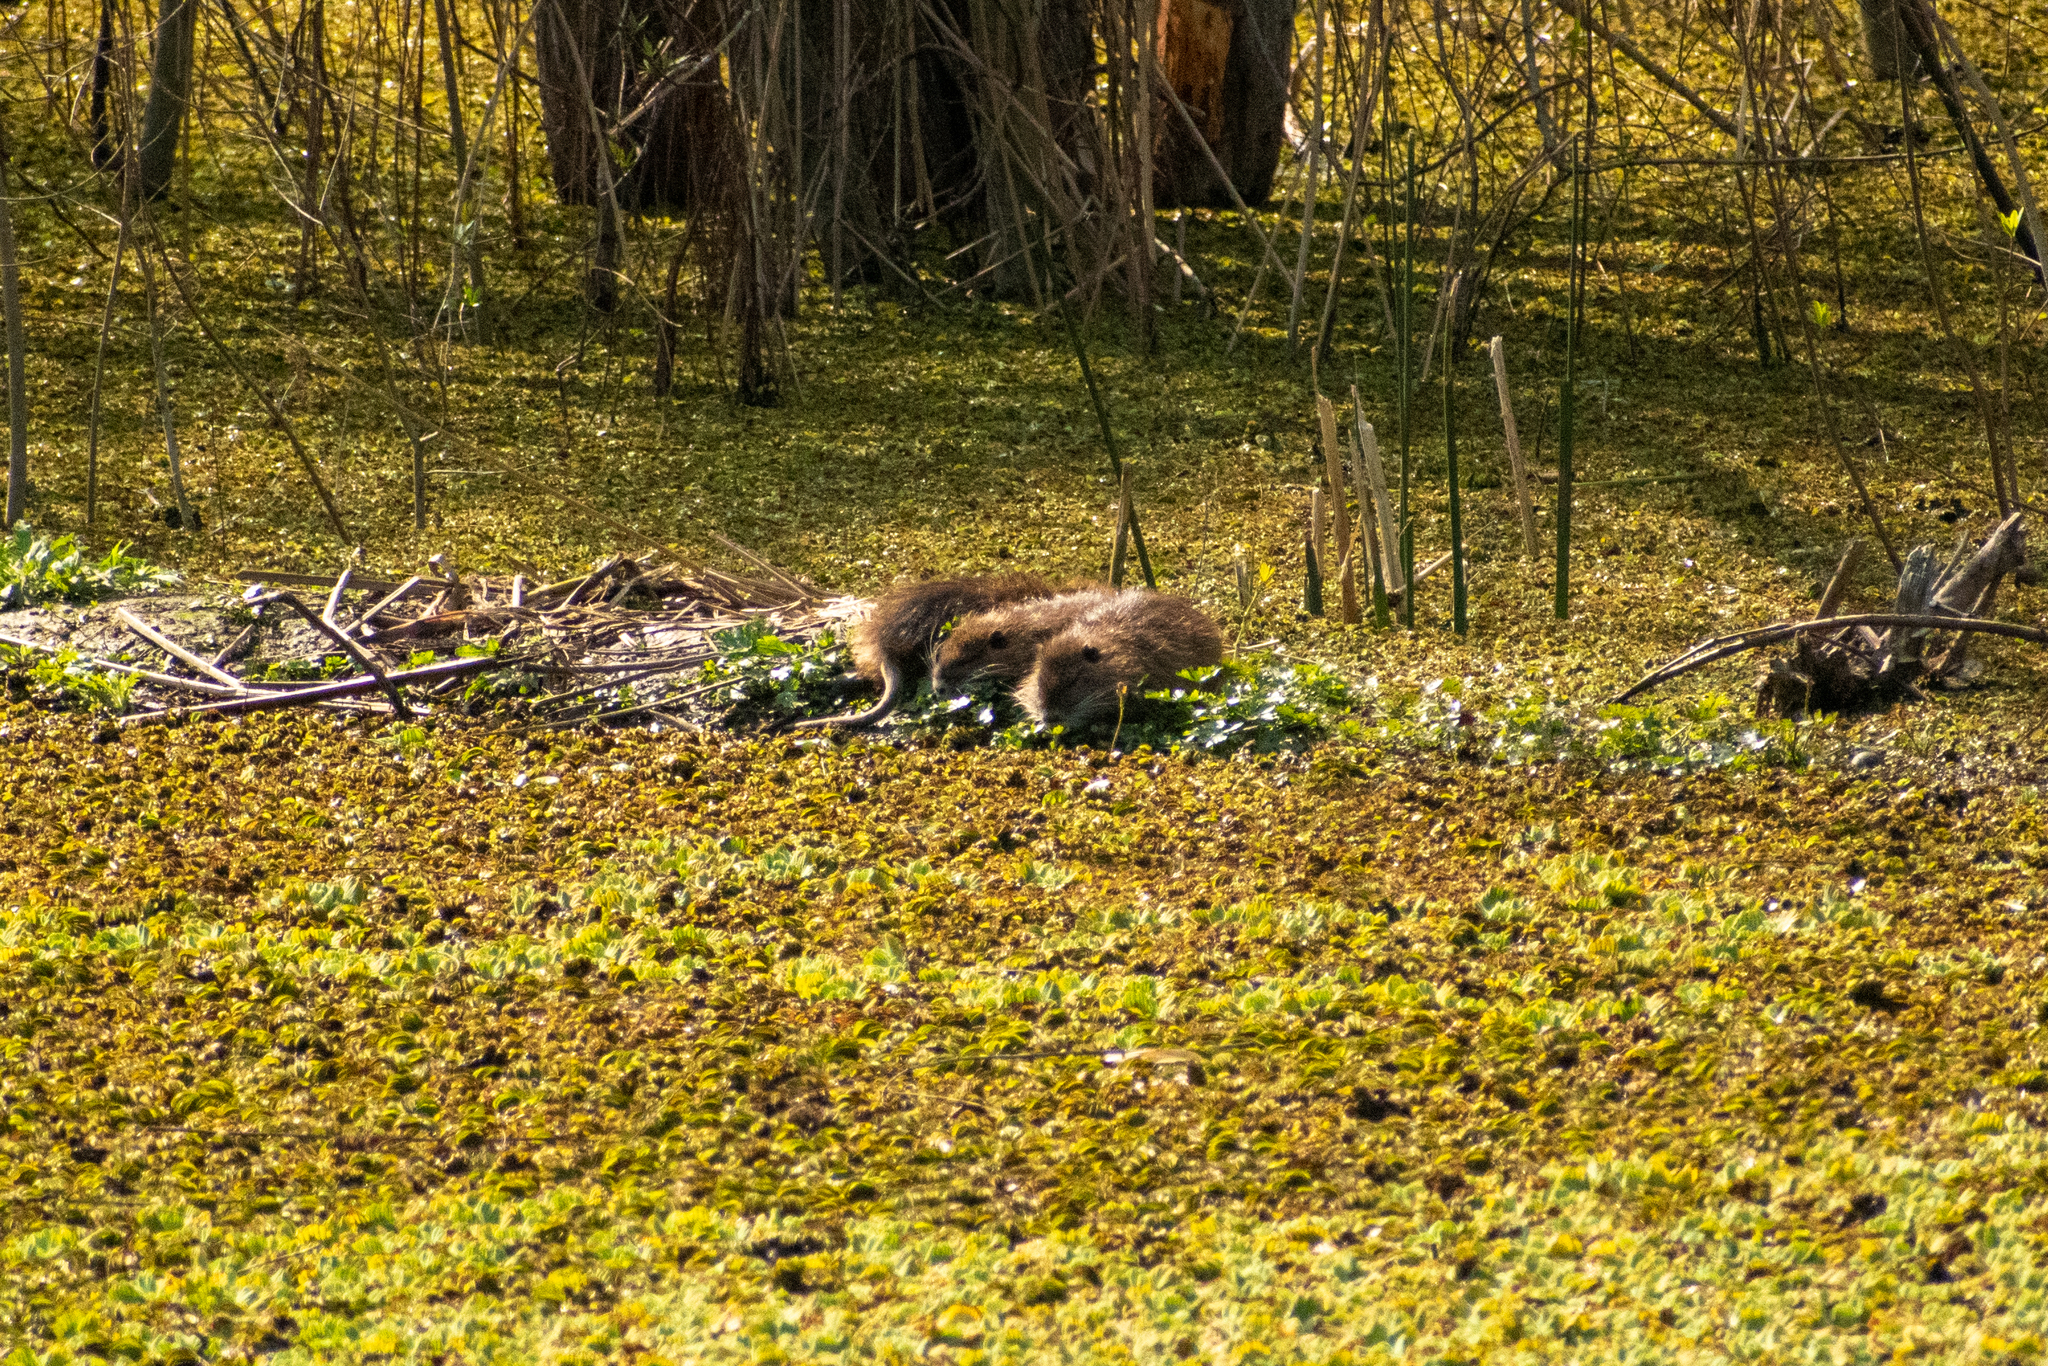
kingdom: Animalia
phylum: Chordata
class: Mammalia
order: Rodentia
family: Myocastoridae
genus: Myocastor
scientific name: Myocastor coypus
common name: Coypu
